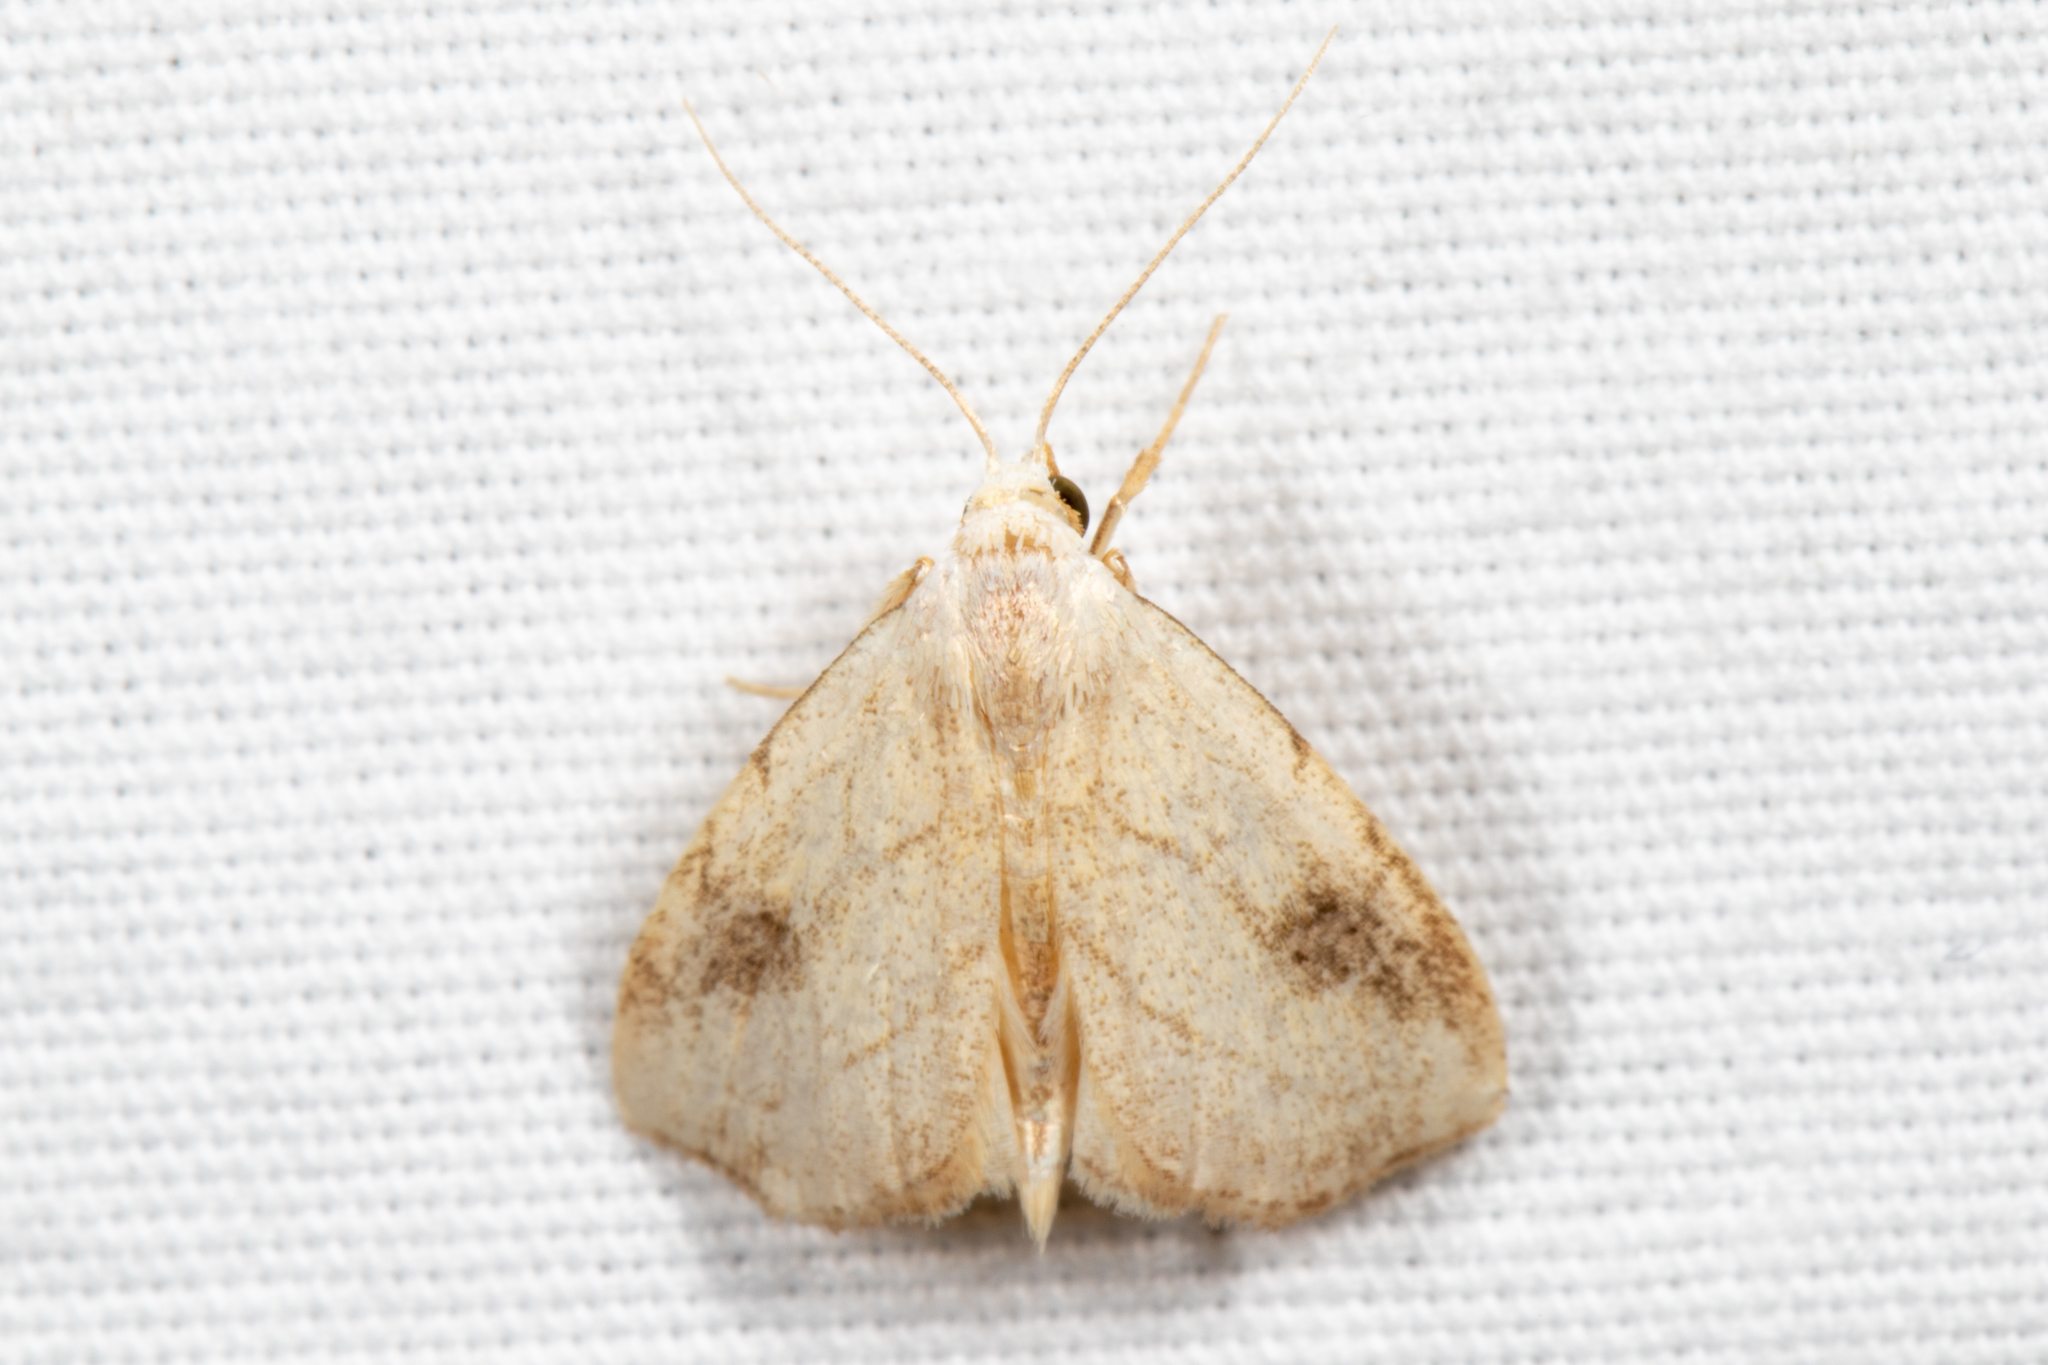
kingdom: Animalia
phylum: Arthropoda
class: Insecta
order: Lepidoptera
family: Erebidae
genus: Rivula
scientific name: Rivula propinqualis
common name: Spotted grass moth
